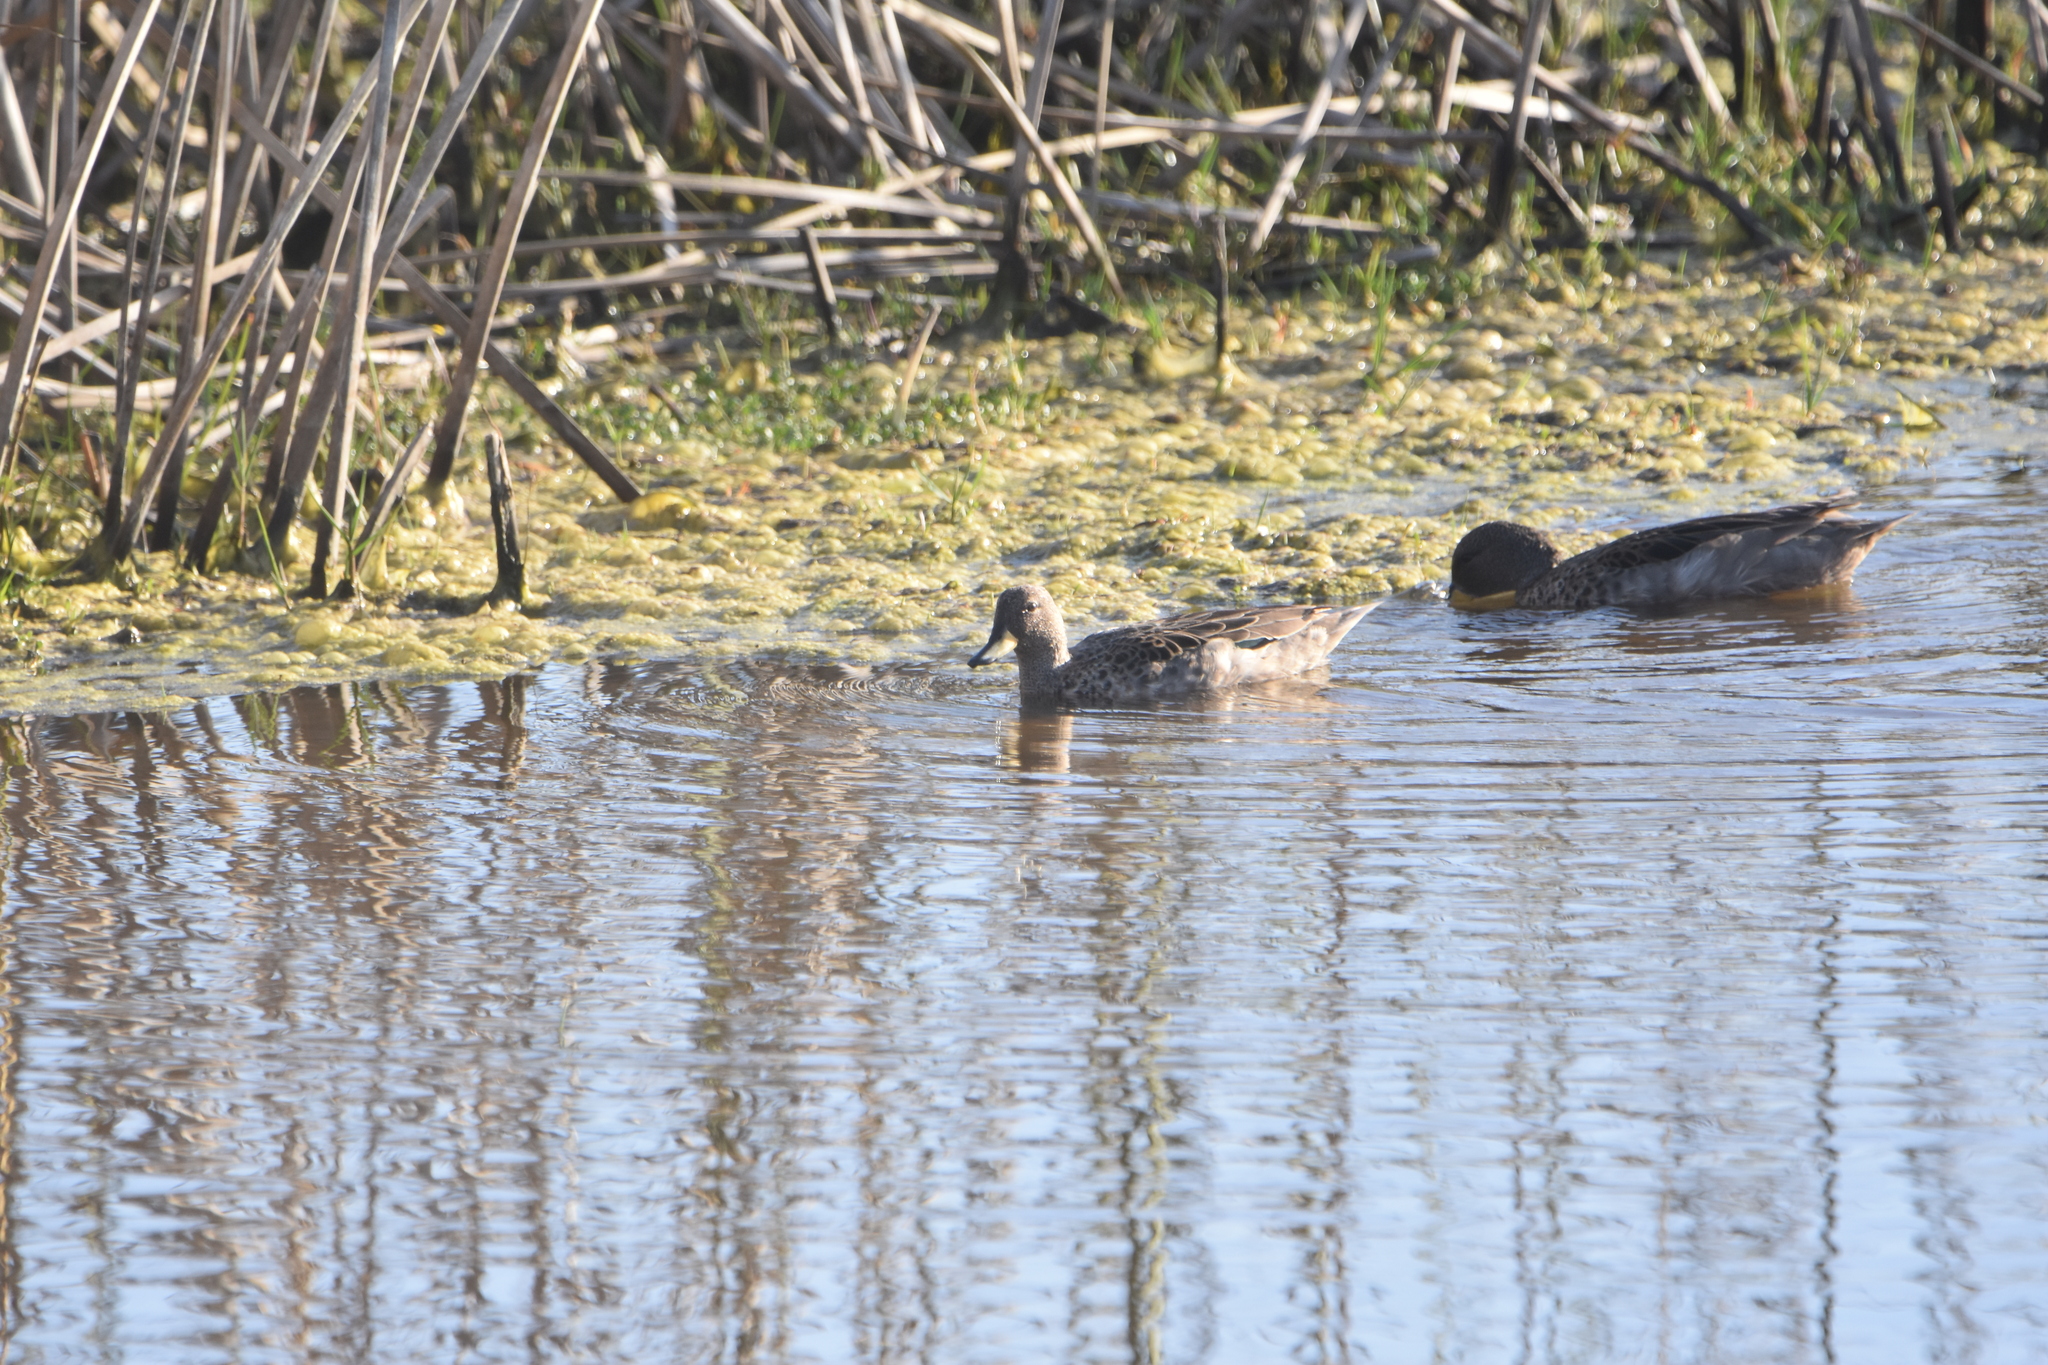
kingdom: Animalia
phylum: Chordata
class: Aves
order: Anseriformes
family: Anatidae
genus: Anas
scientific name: Anas georgica
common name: Yellow-billed pintail
